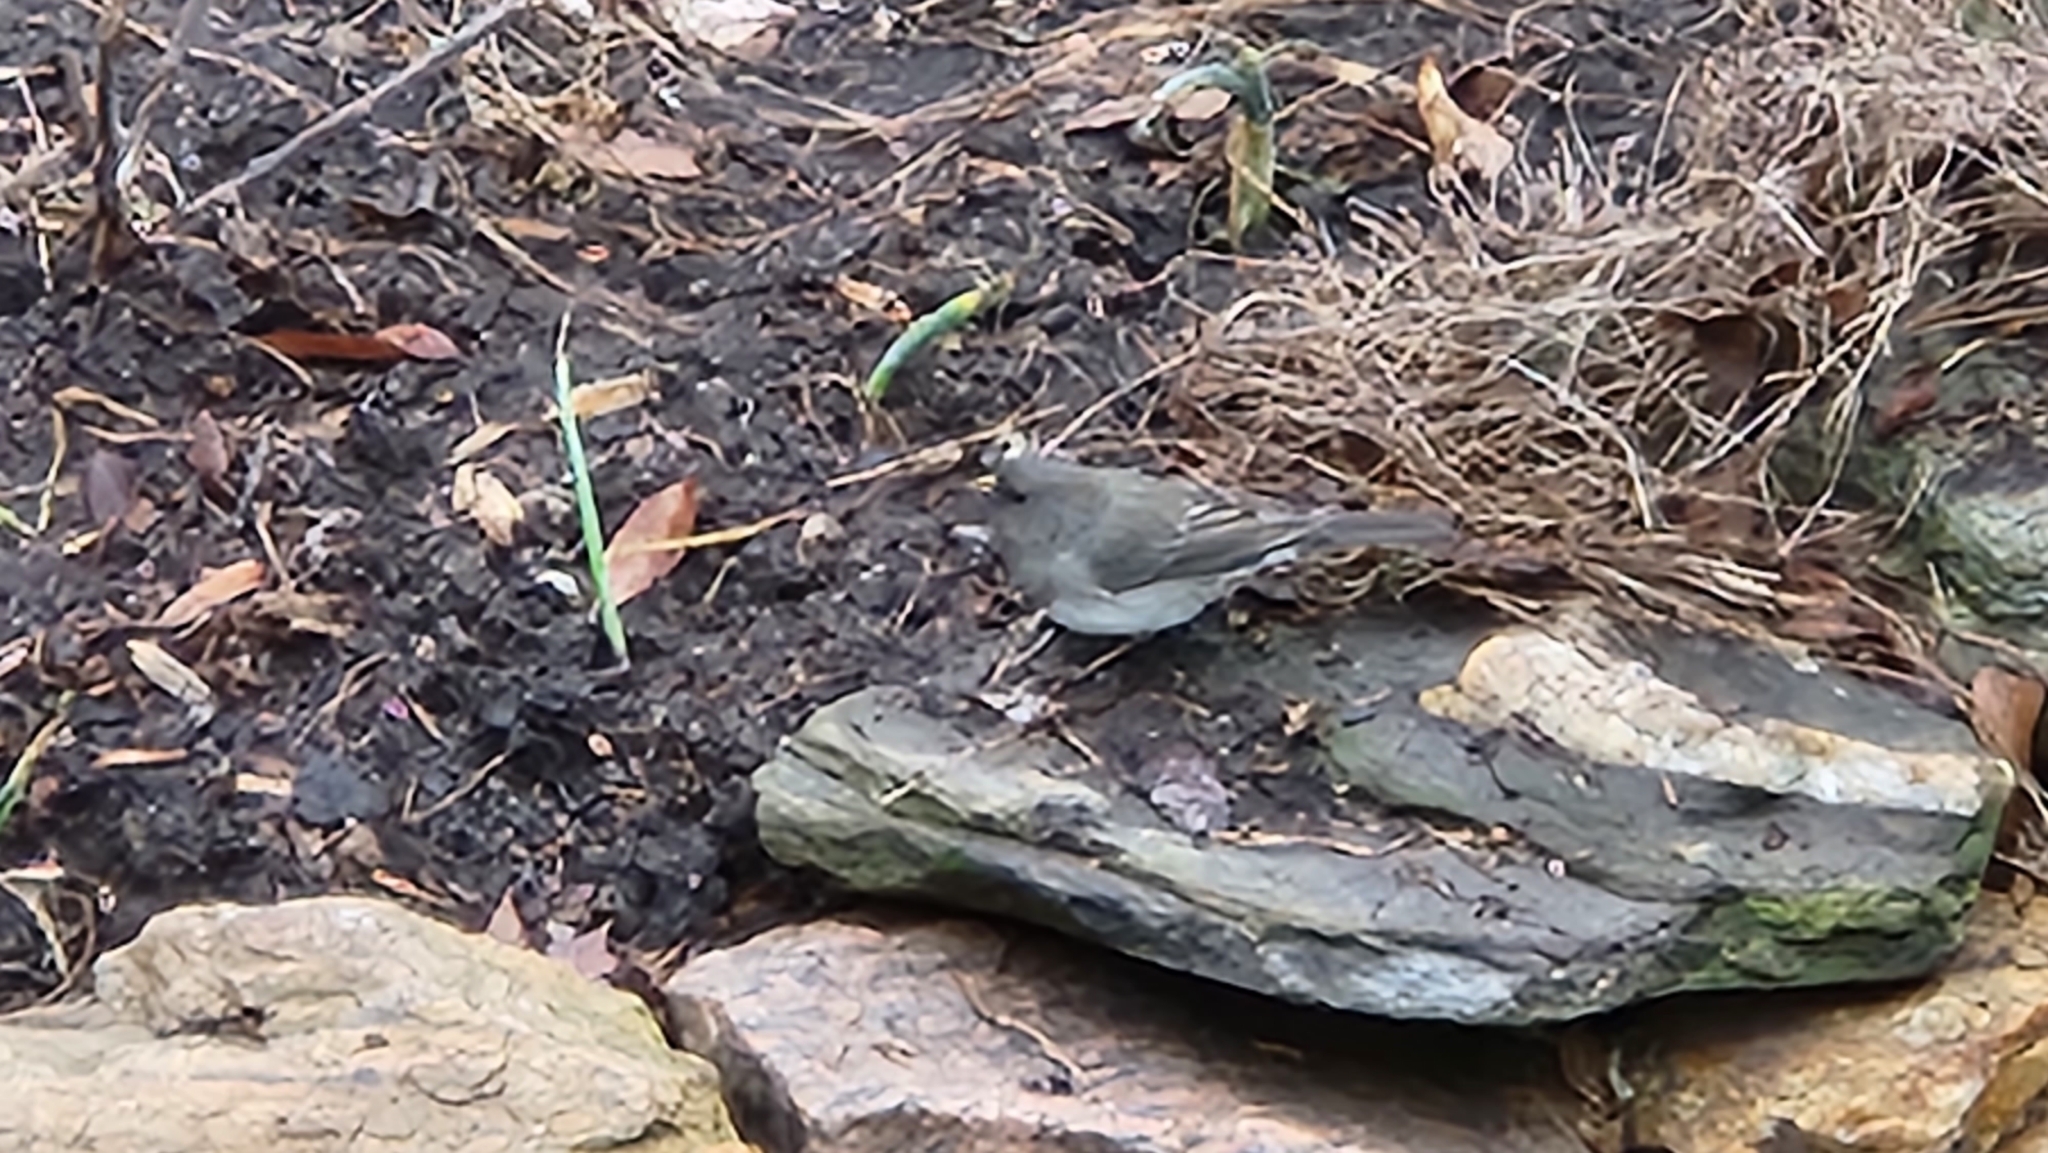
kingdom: Animalia
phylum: Chordata
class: Aves
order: Passeriformes
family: Passerellidae
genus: Junco
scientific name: Junco hyemalis
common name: Dark-eyed junco
